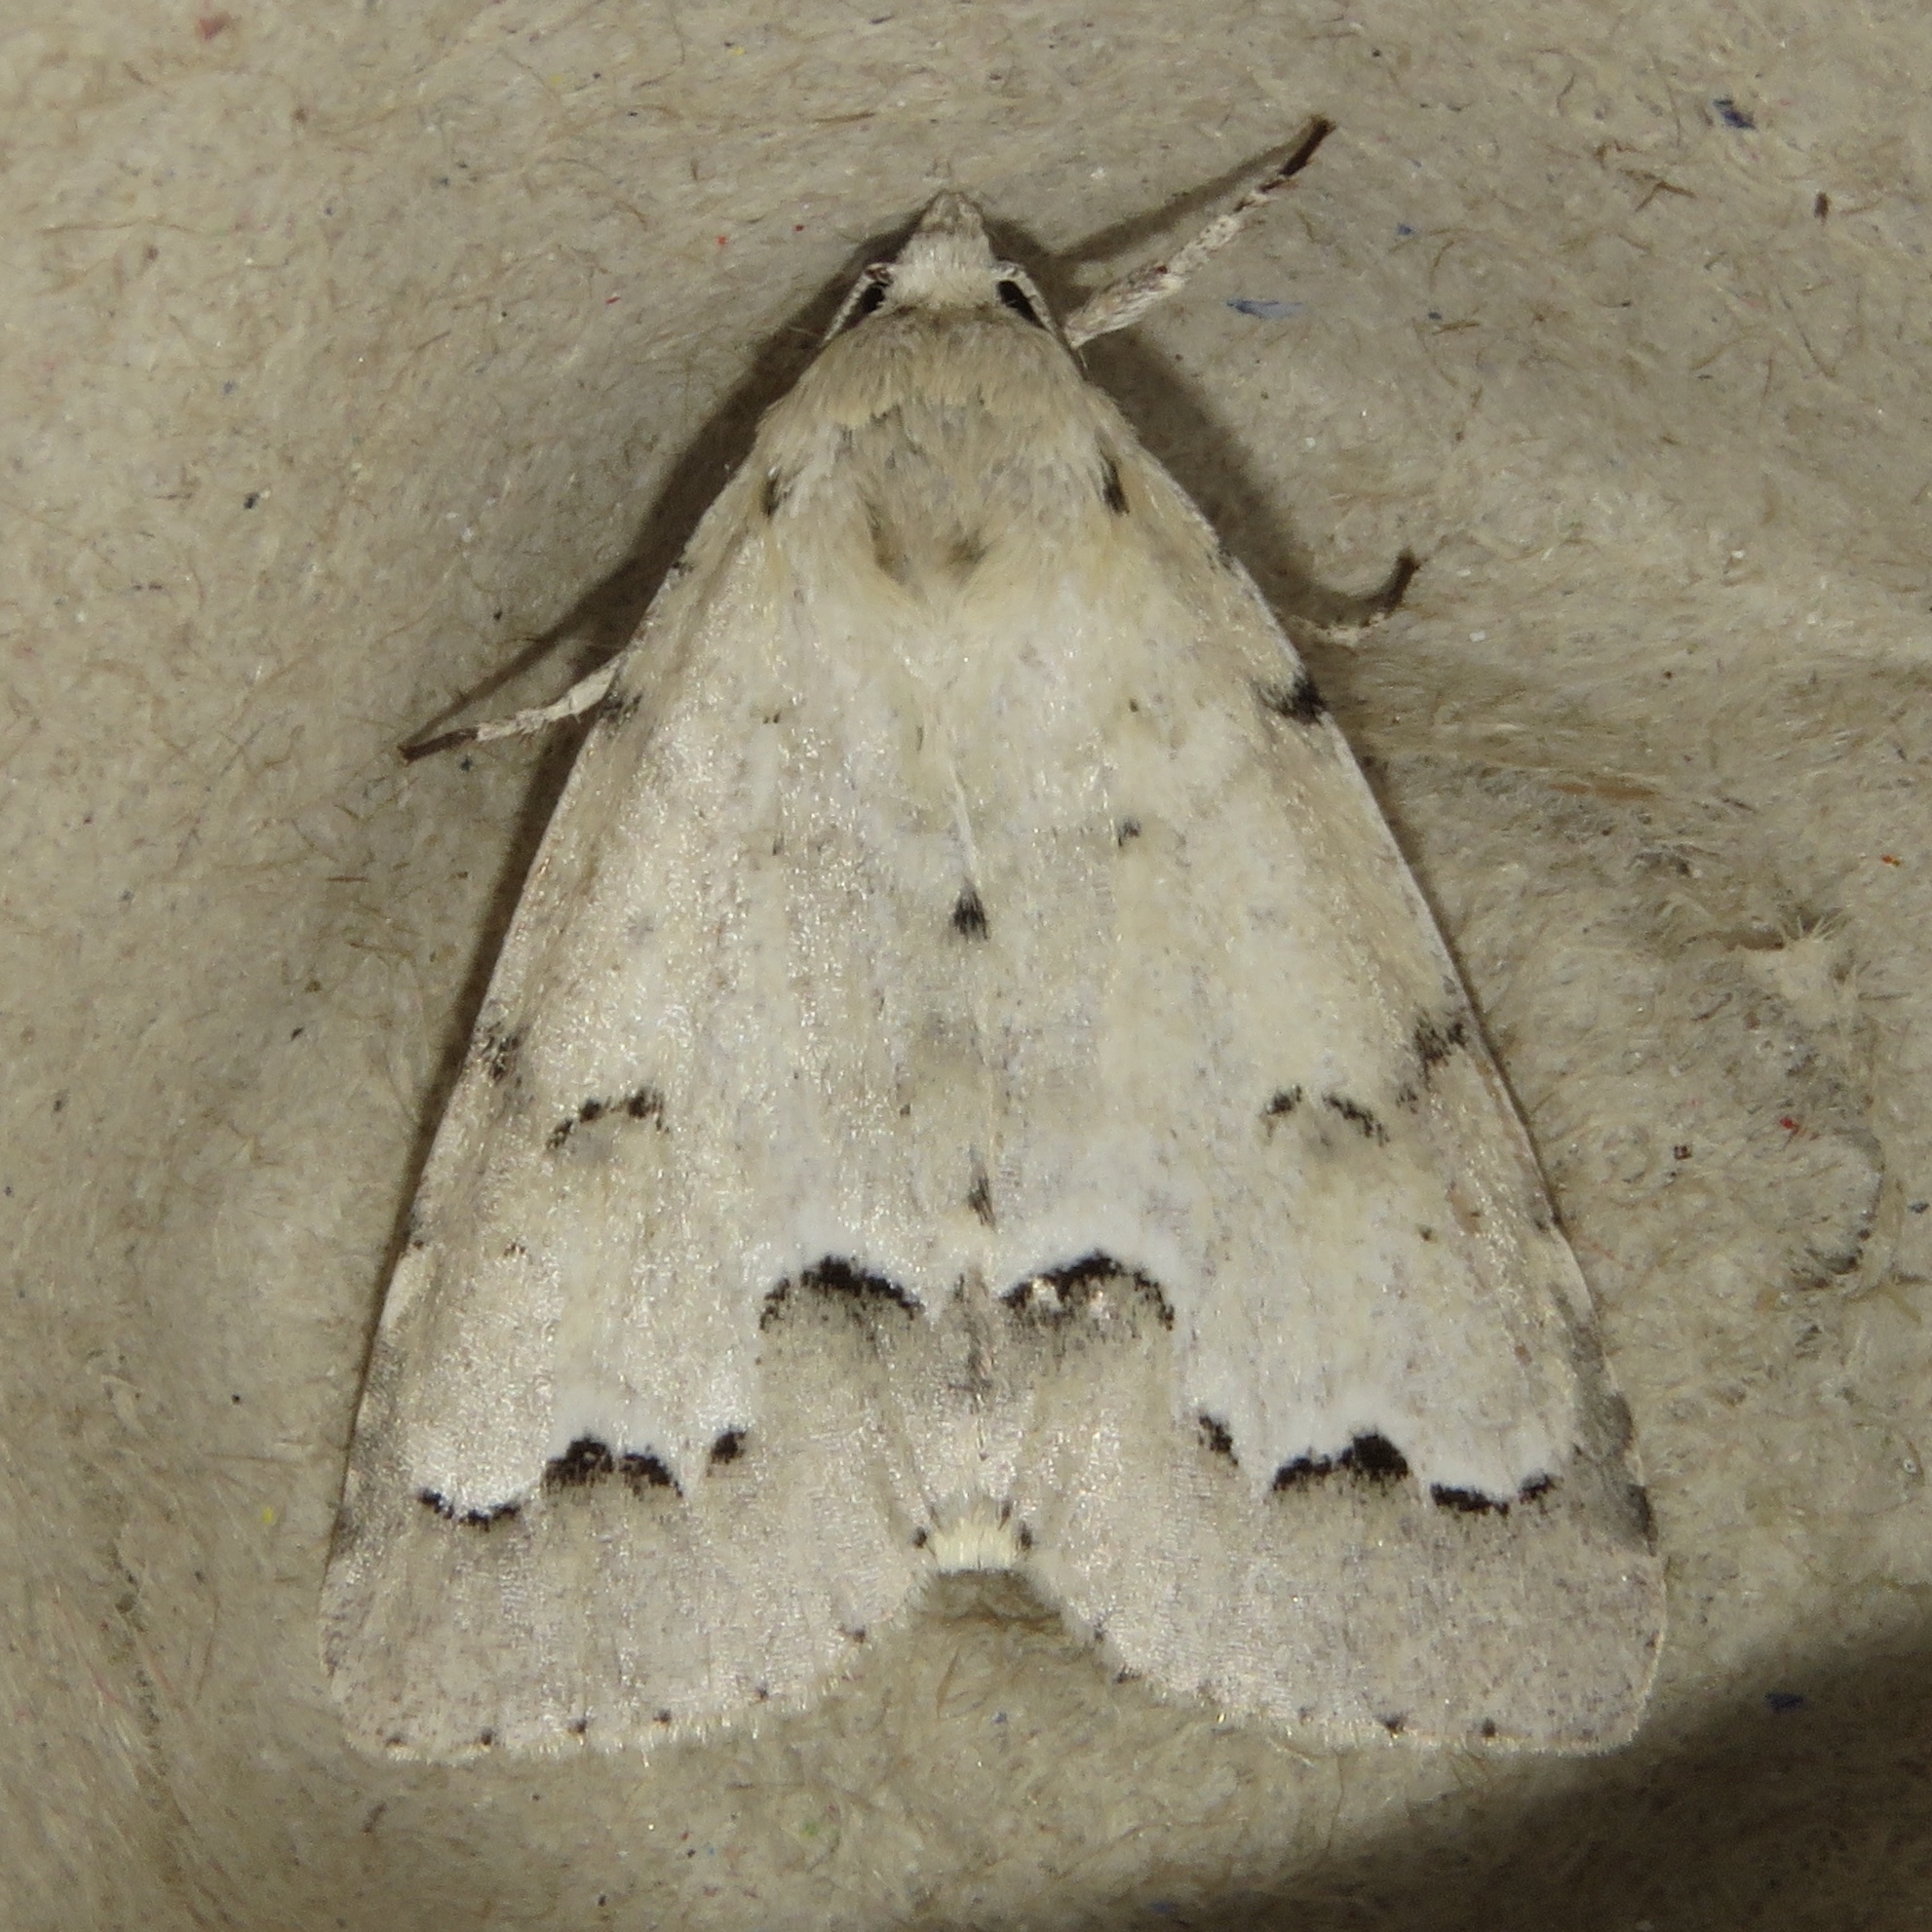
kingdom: Animalia
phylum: Arthropoda
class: Insecta
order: Lepidoptera
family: Noctuidae
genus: Acronicta
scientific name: Acronicta innotata
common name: Unmarked dagger
